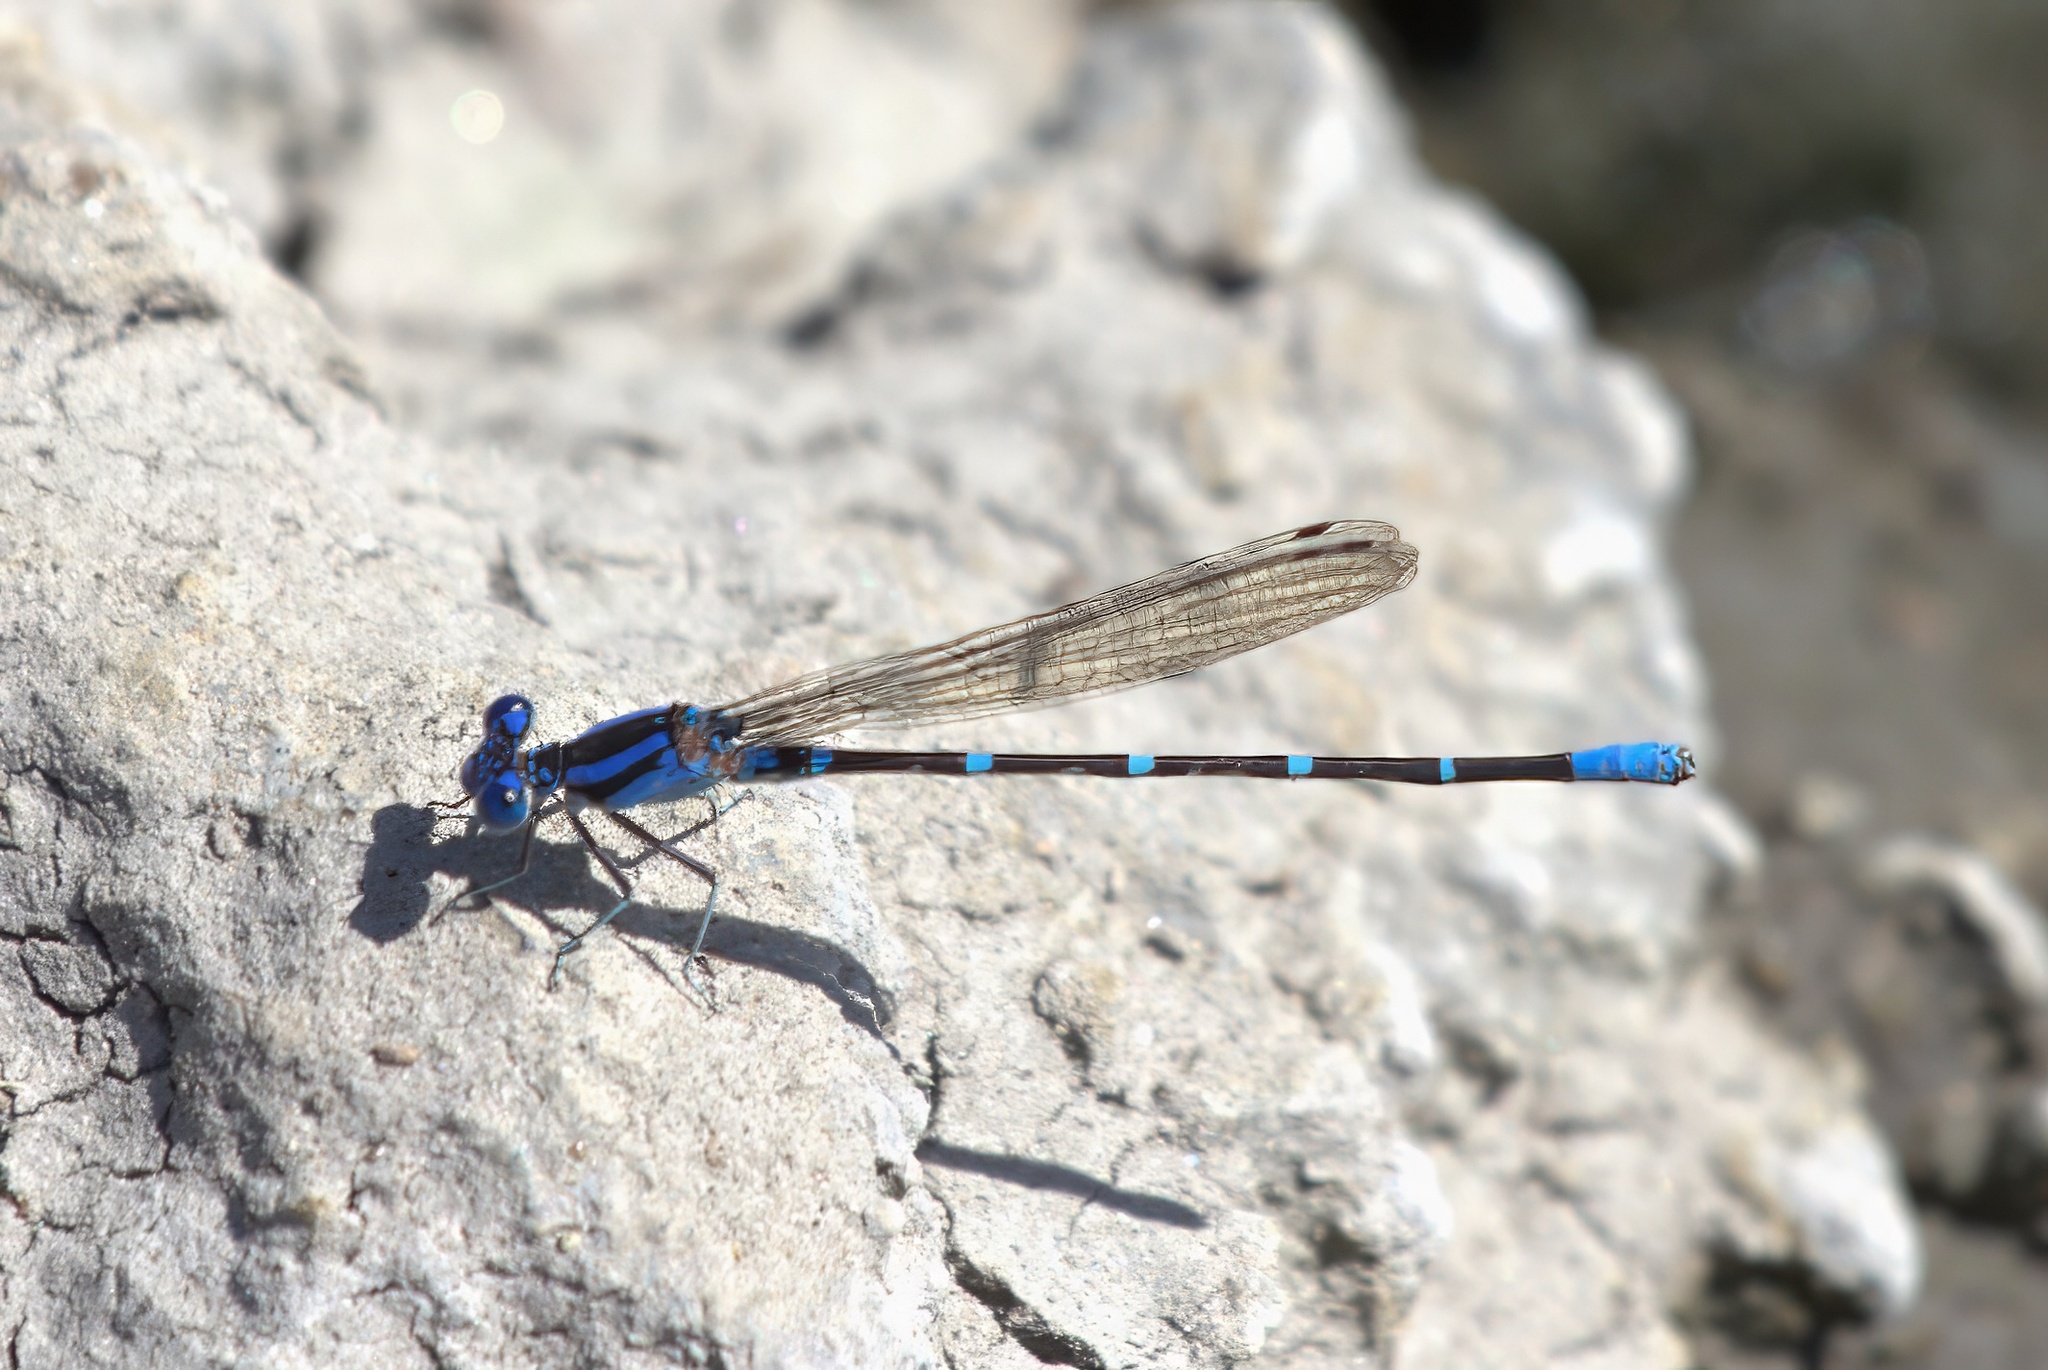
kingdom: Animalia
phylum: Arthropoda
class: Insecta
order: Odonata
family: Coenagrionidae
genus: Argia
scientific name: Argia sedula
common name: Blue-ringed dancer
